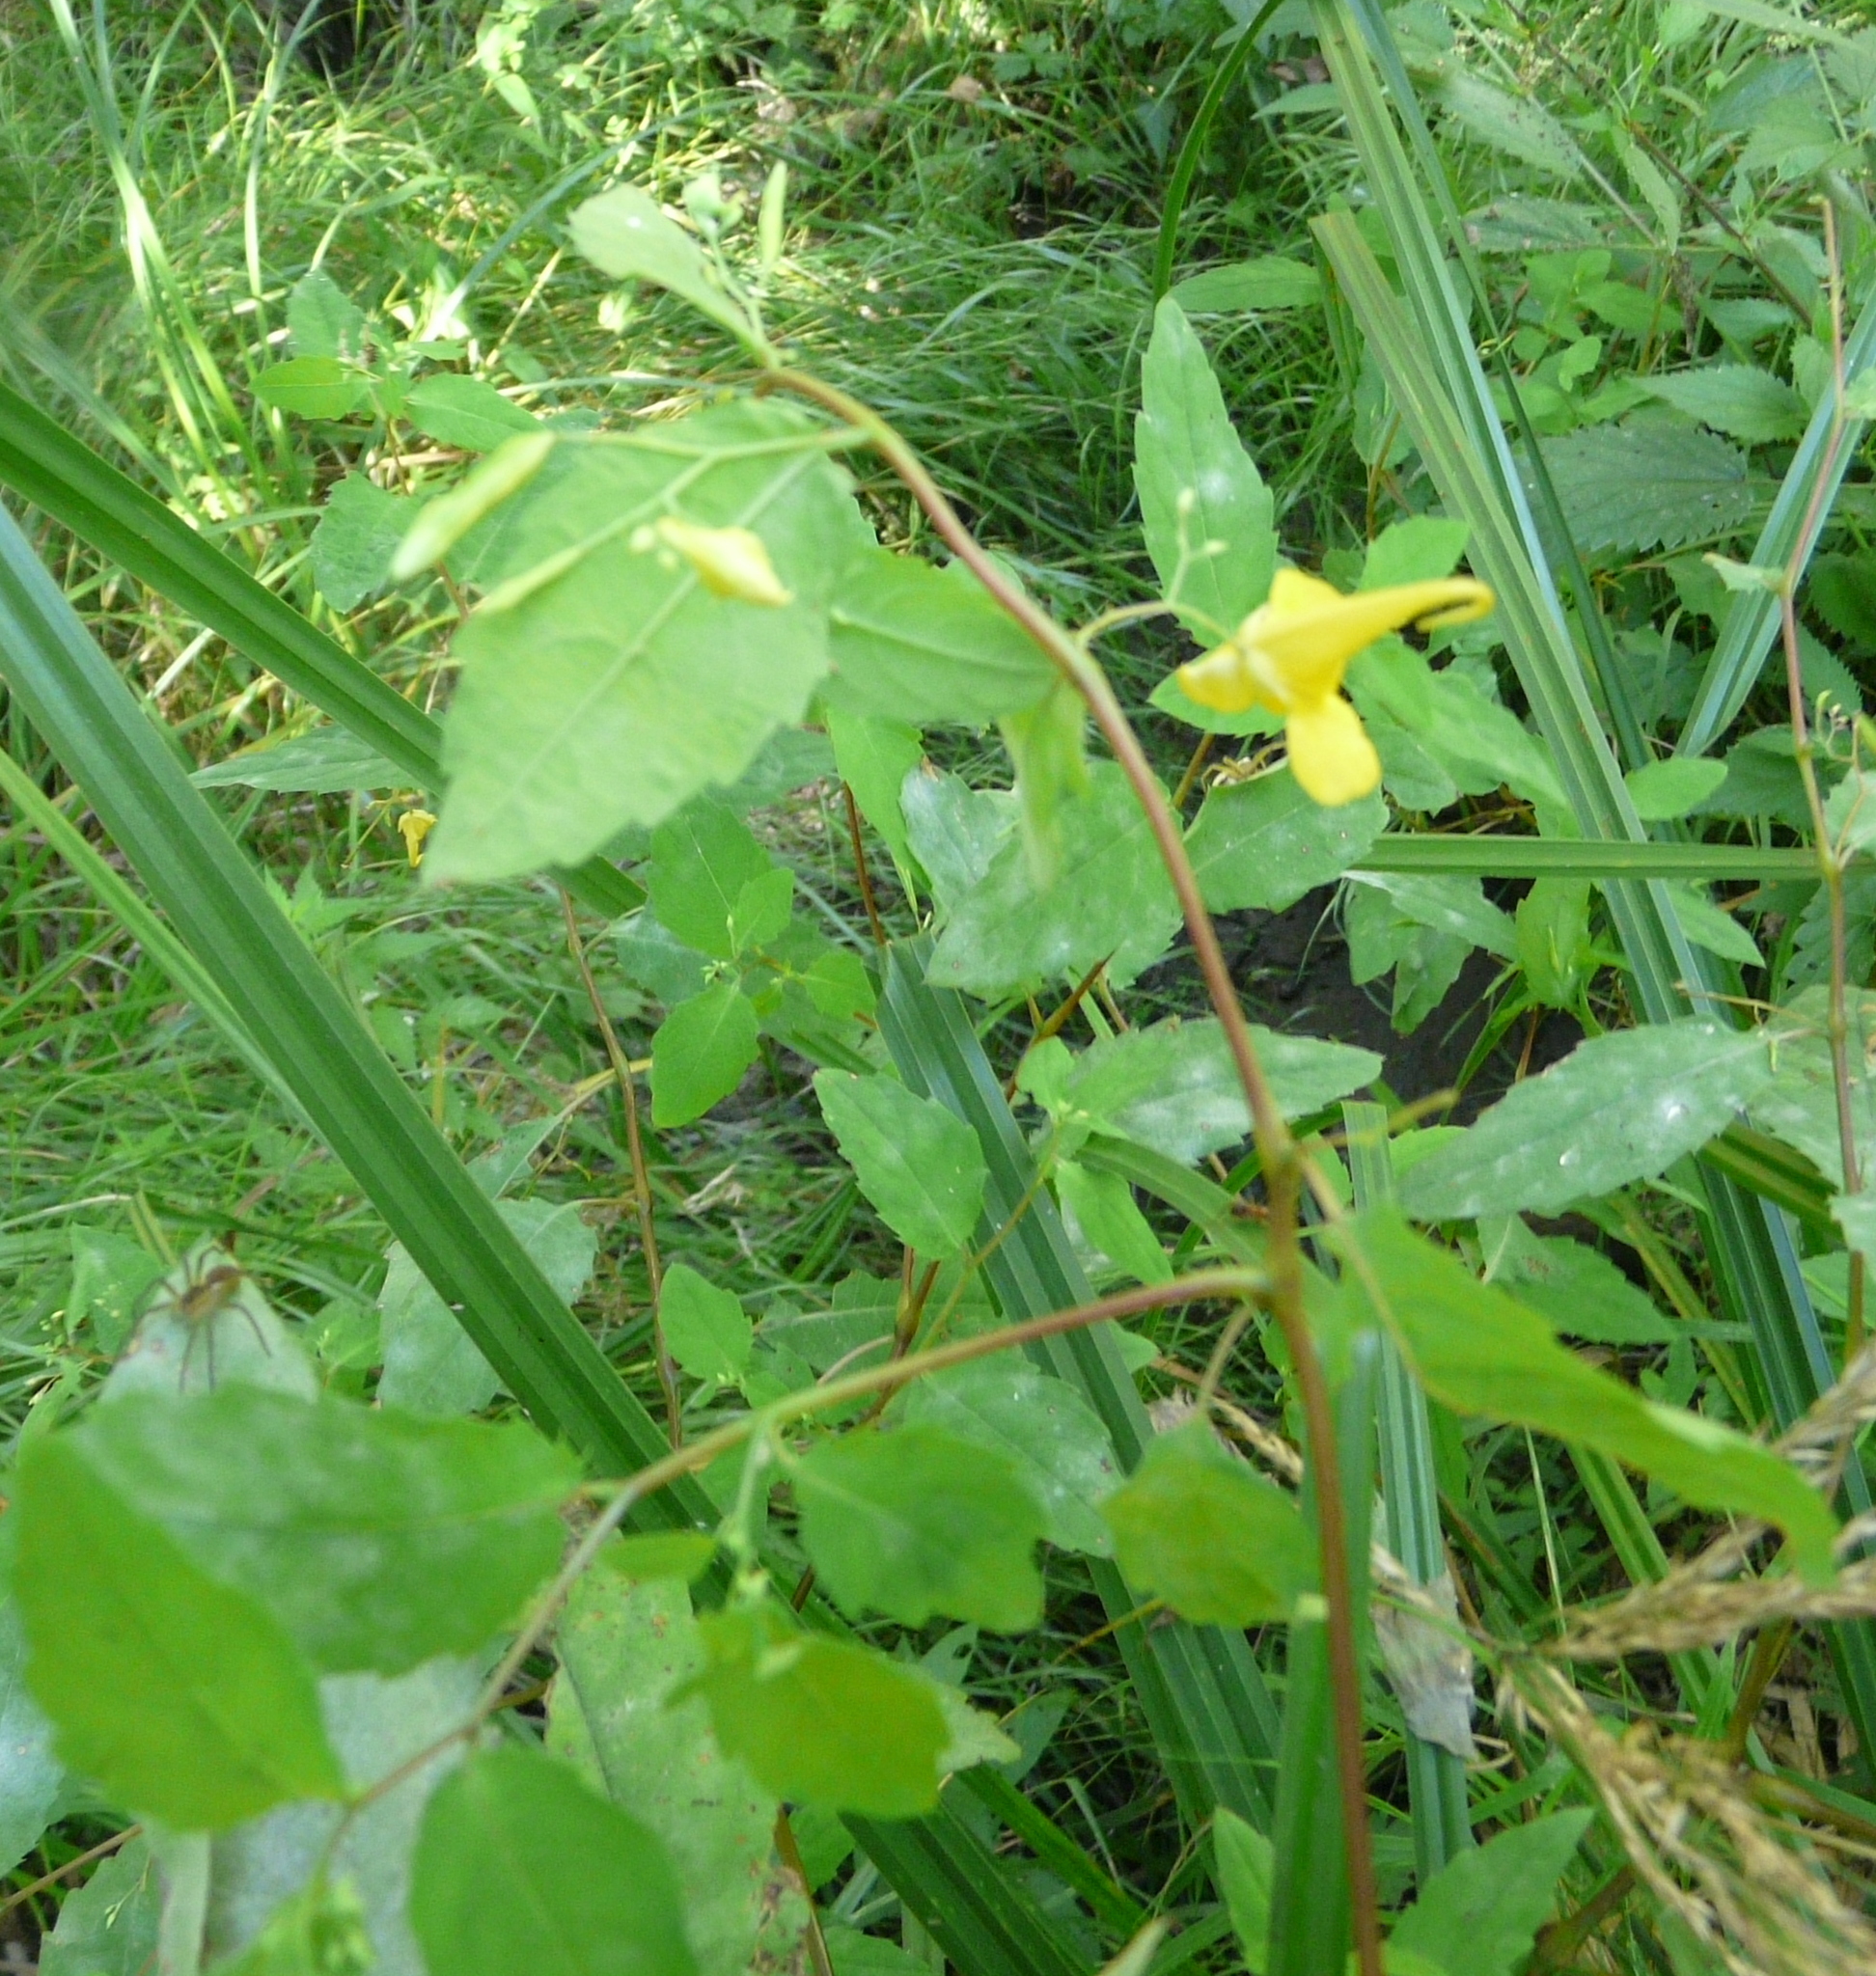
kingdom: Plantae
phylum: Tracheophyta
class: Magnoliopsida
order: Ericales
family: Balsaminaceae
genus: Impatiens
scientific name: Impatiens noli-tangere
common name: Touch-me-not balsam
